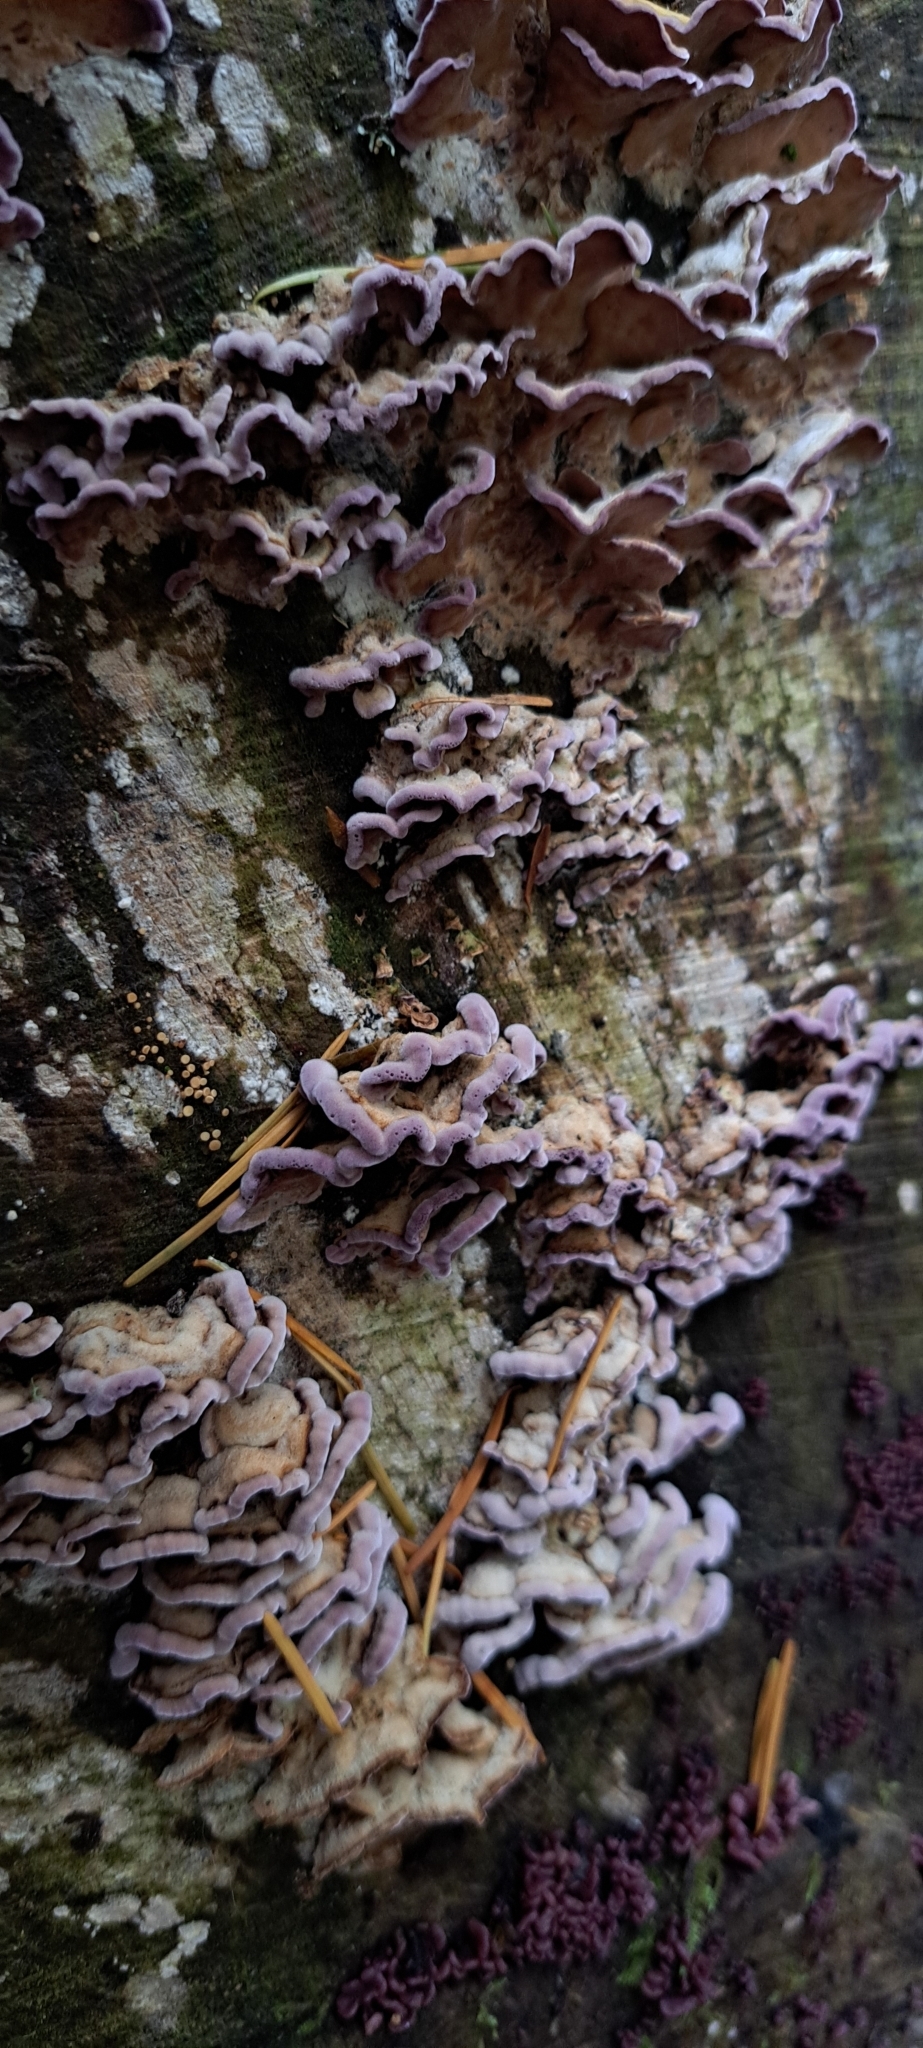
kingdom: Fungi
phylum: Basidiomycota
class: Agaricomycetes
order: Agaricales
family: Cyphellaceae
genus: Chondrostereum
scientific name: Chondrostereum purpureum
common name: Silver leaf disease
